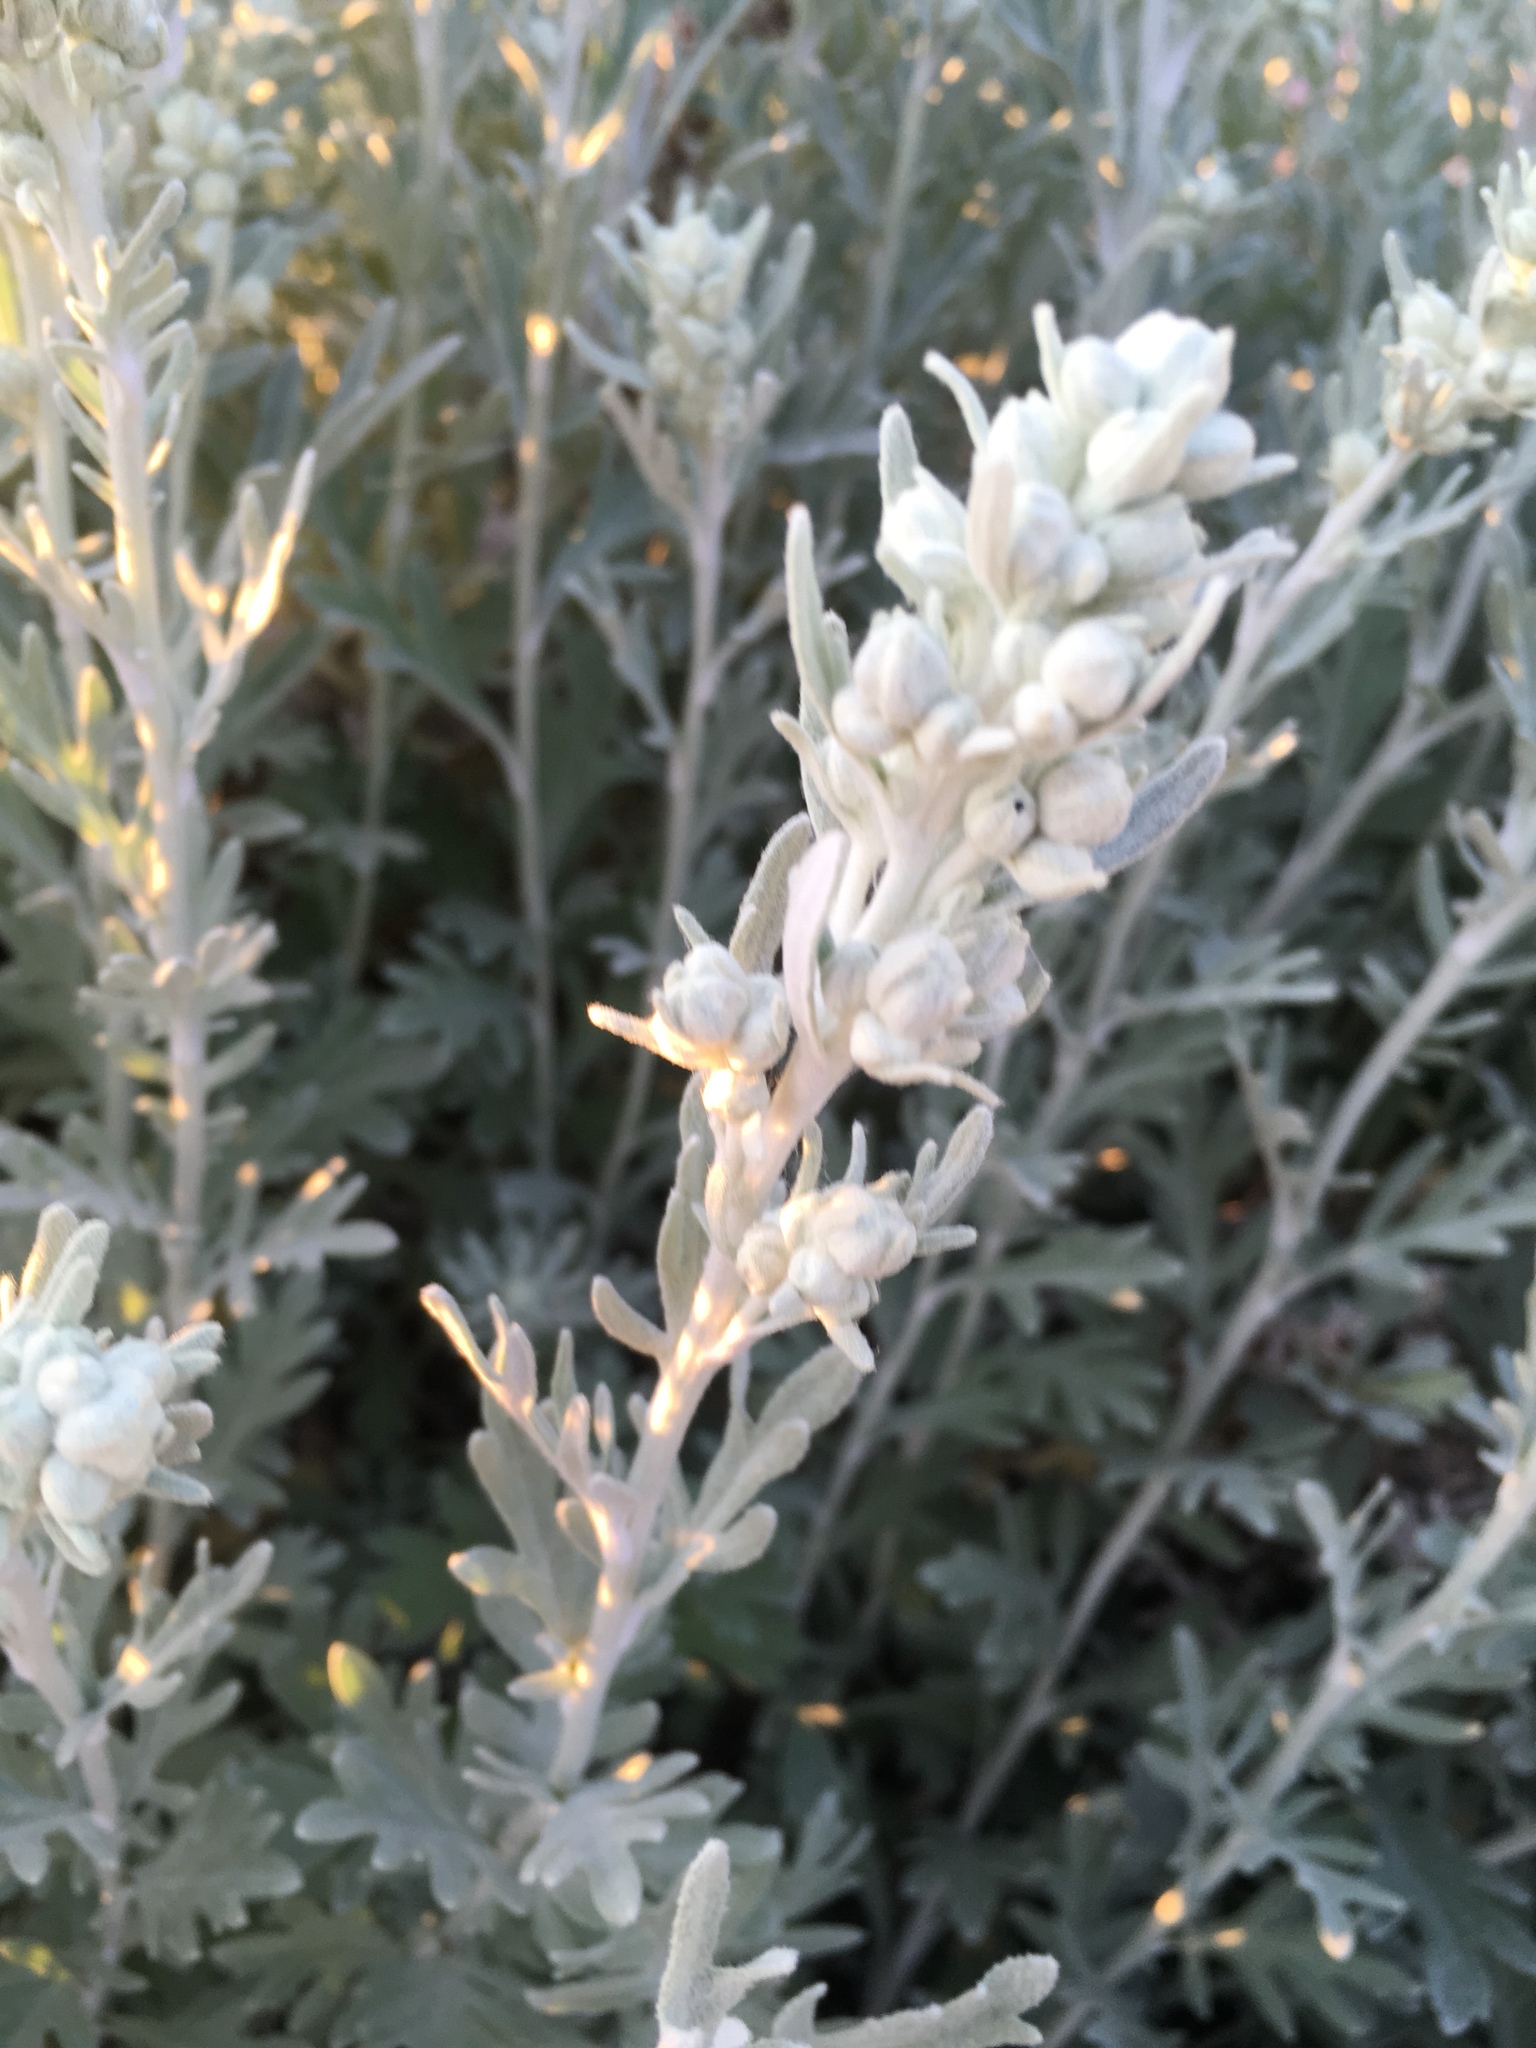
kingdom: Plantae
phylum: Tracheophyta
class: Magnoliopsida
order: Asterales
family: Asteraceae
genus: Artemisia
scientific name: Artemisia stelleriana
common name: Beach wormwood
